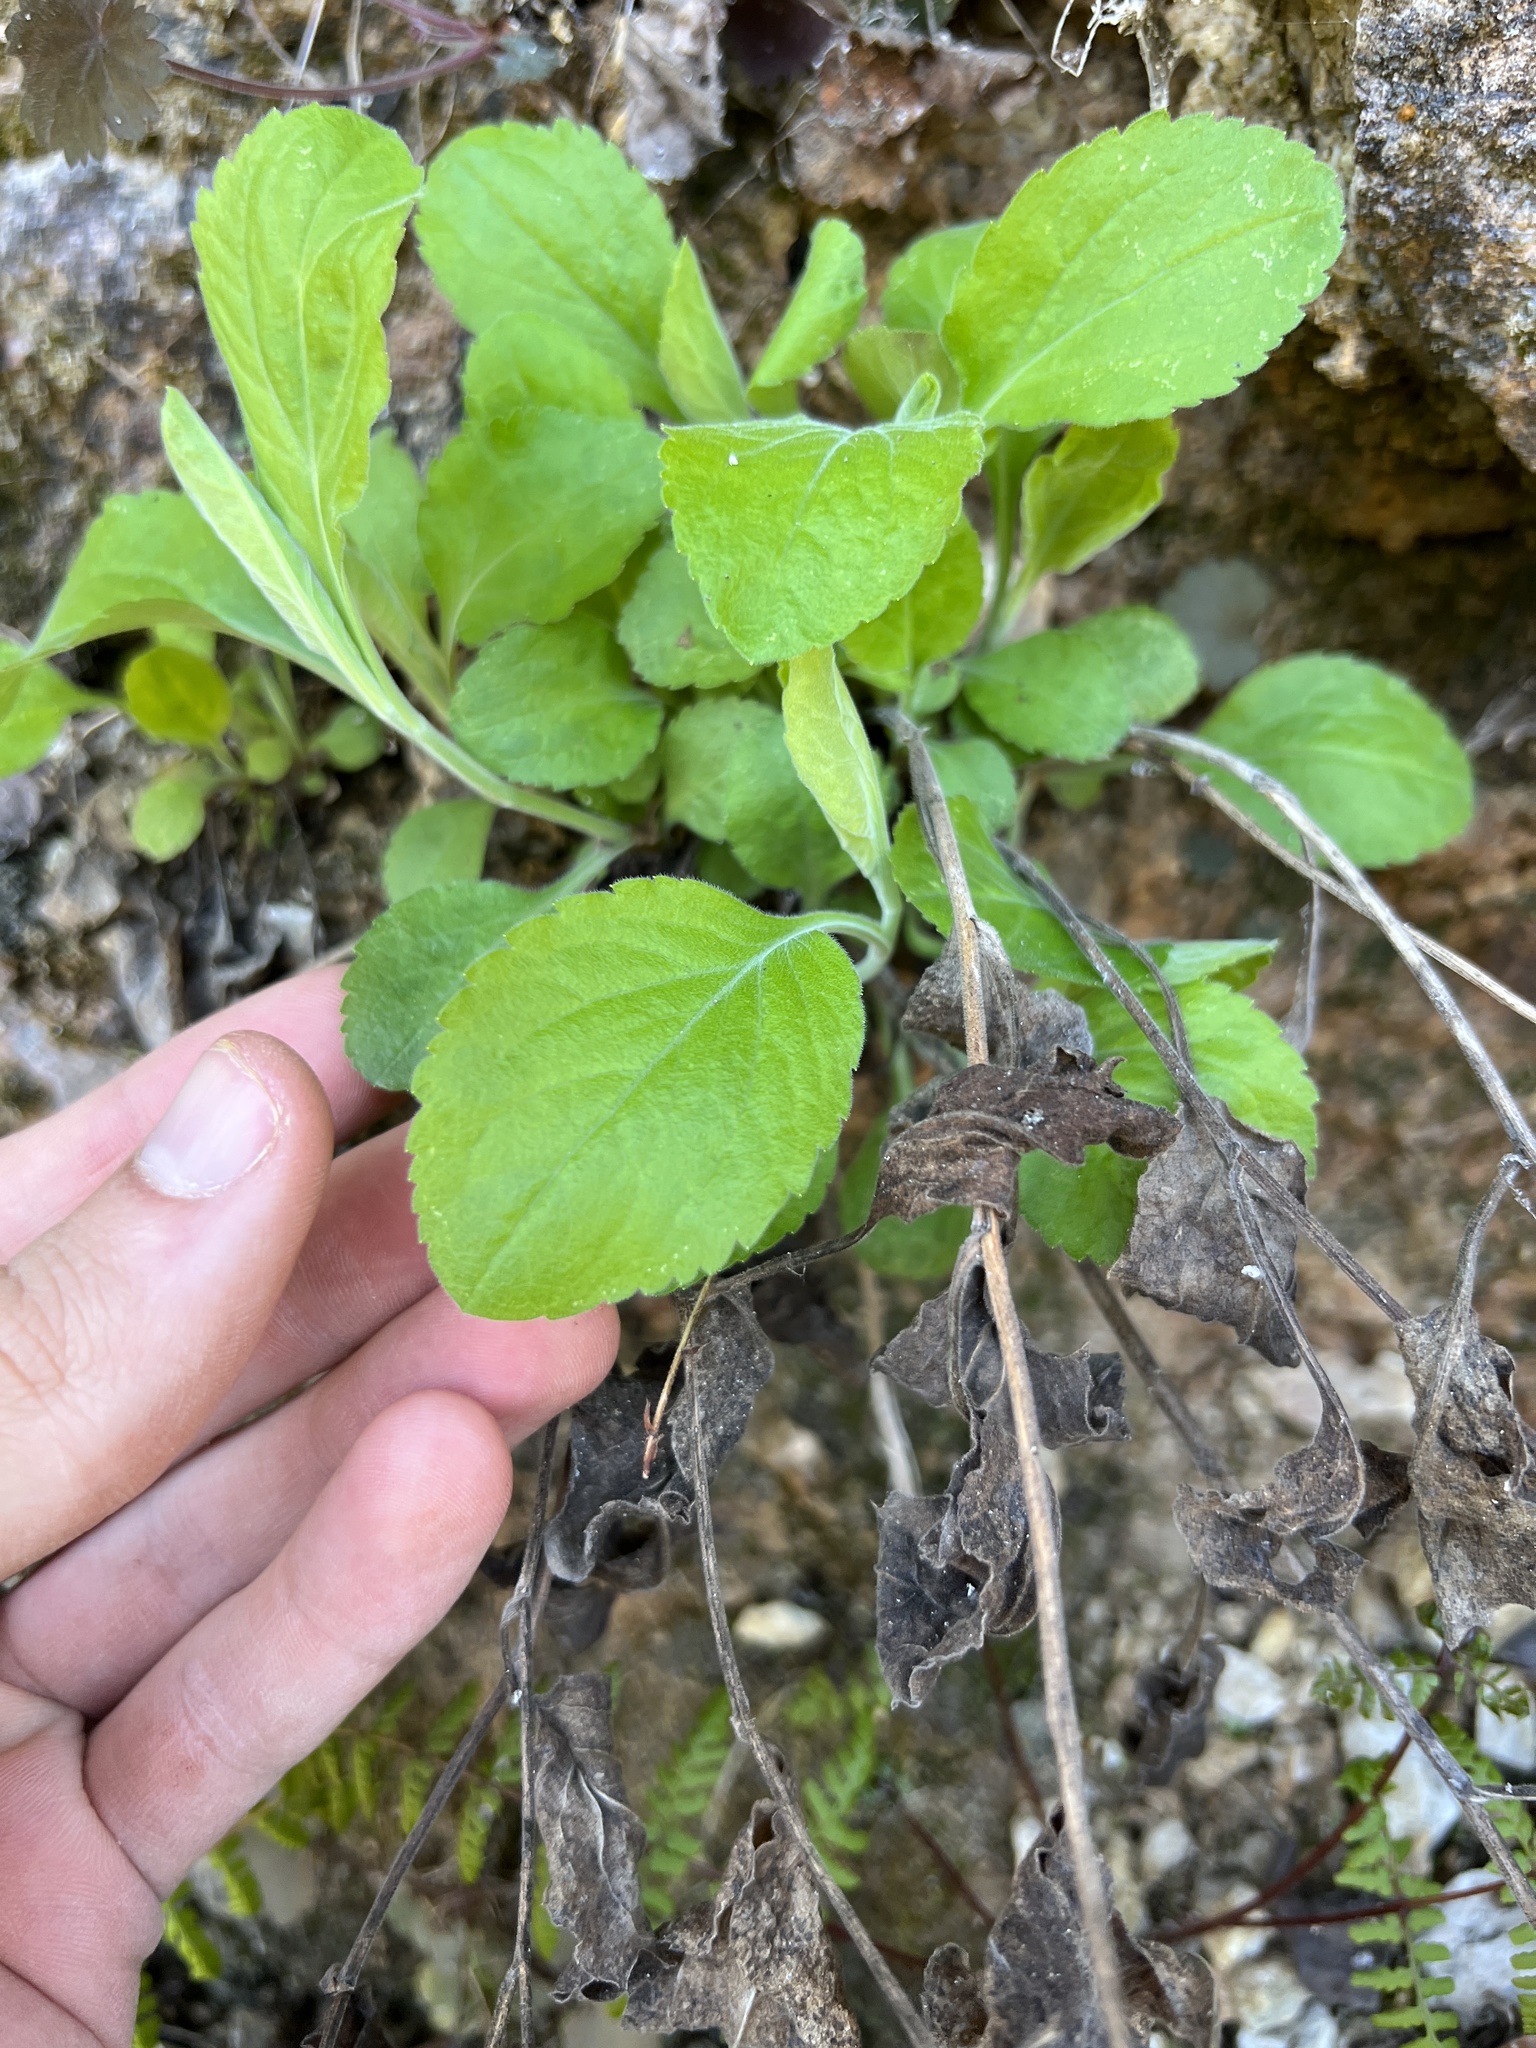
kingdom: Plantae
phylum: Tracheophyta
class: Magnoliopsida
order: Asterales
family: Asteraceae
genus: Solidago
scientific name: Solidago drummondii
